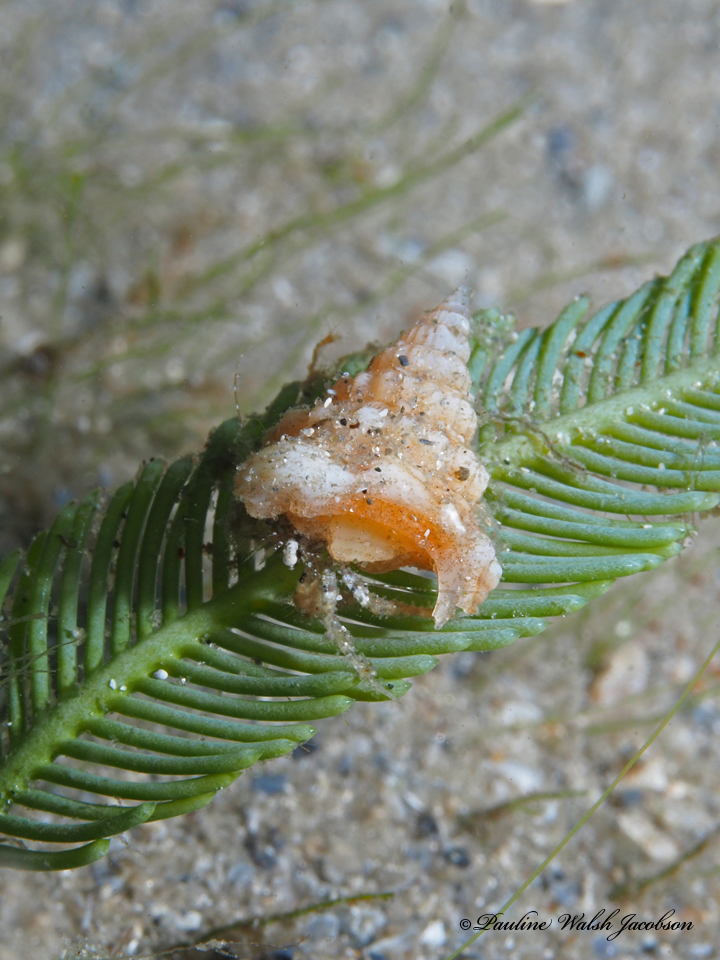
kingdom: Animalia
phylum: Arthropoda
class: Malacostraca
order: Decapoda
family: Paguridae
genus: Pagurus
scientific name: Pagurus maclaughlinae
